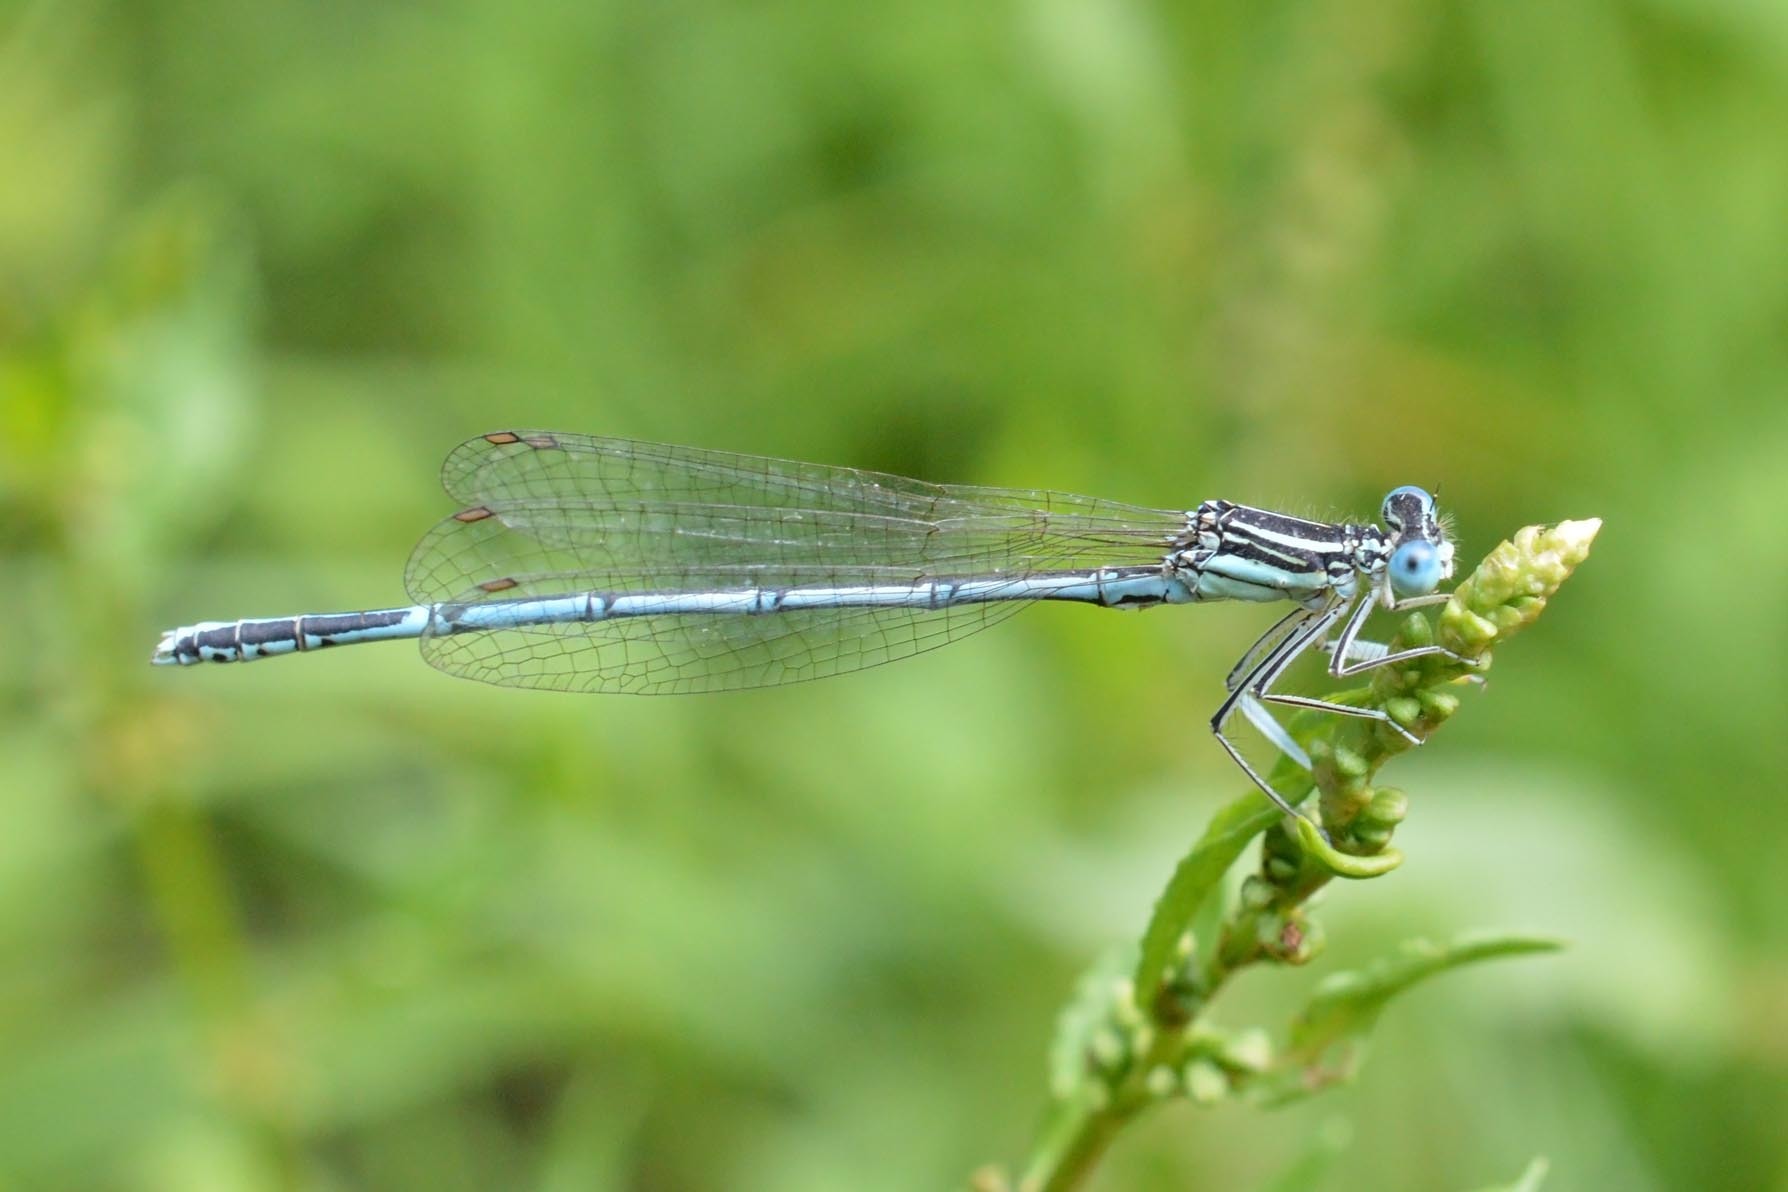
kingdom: Animalia
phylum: Arthropoda
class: Insecta
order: Odonata
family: Platycnemididae
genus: Platycnemis
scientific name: Platycnemis pennipes
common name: White-legged damselfly
